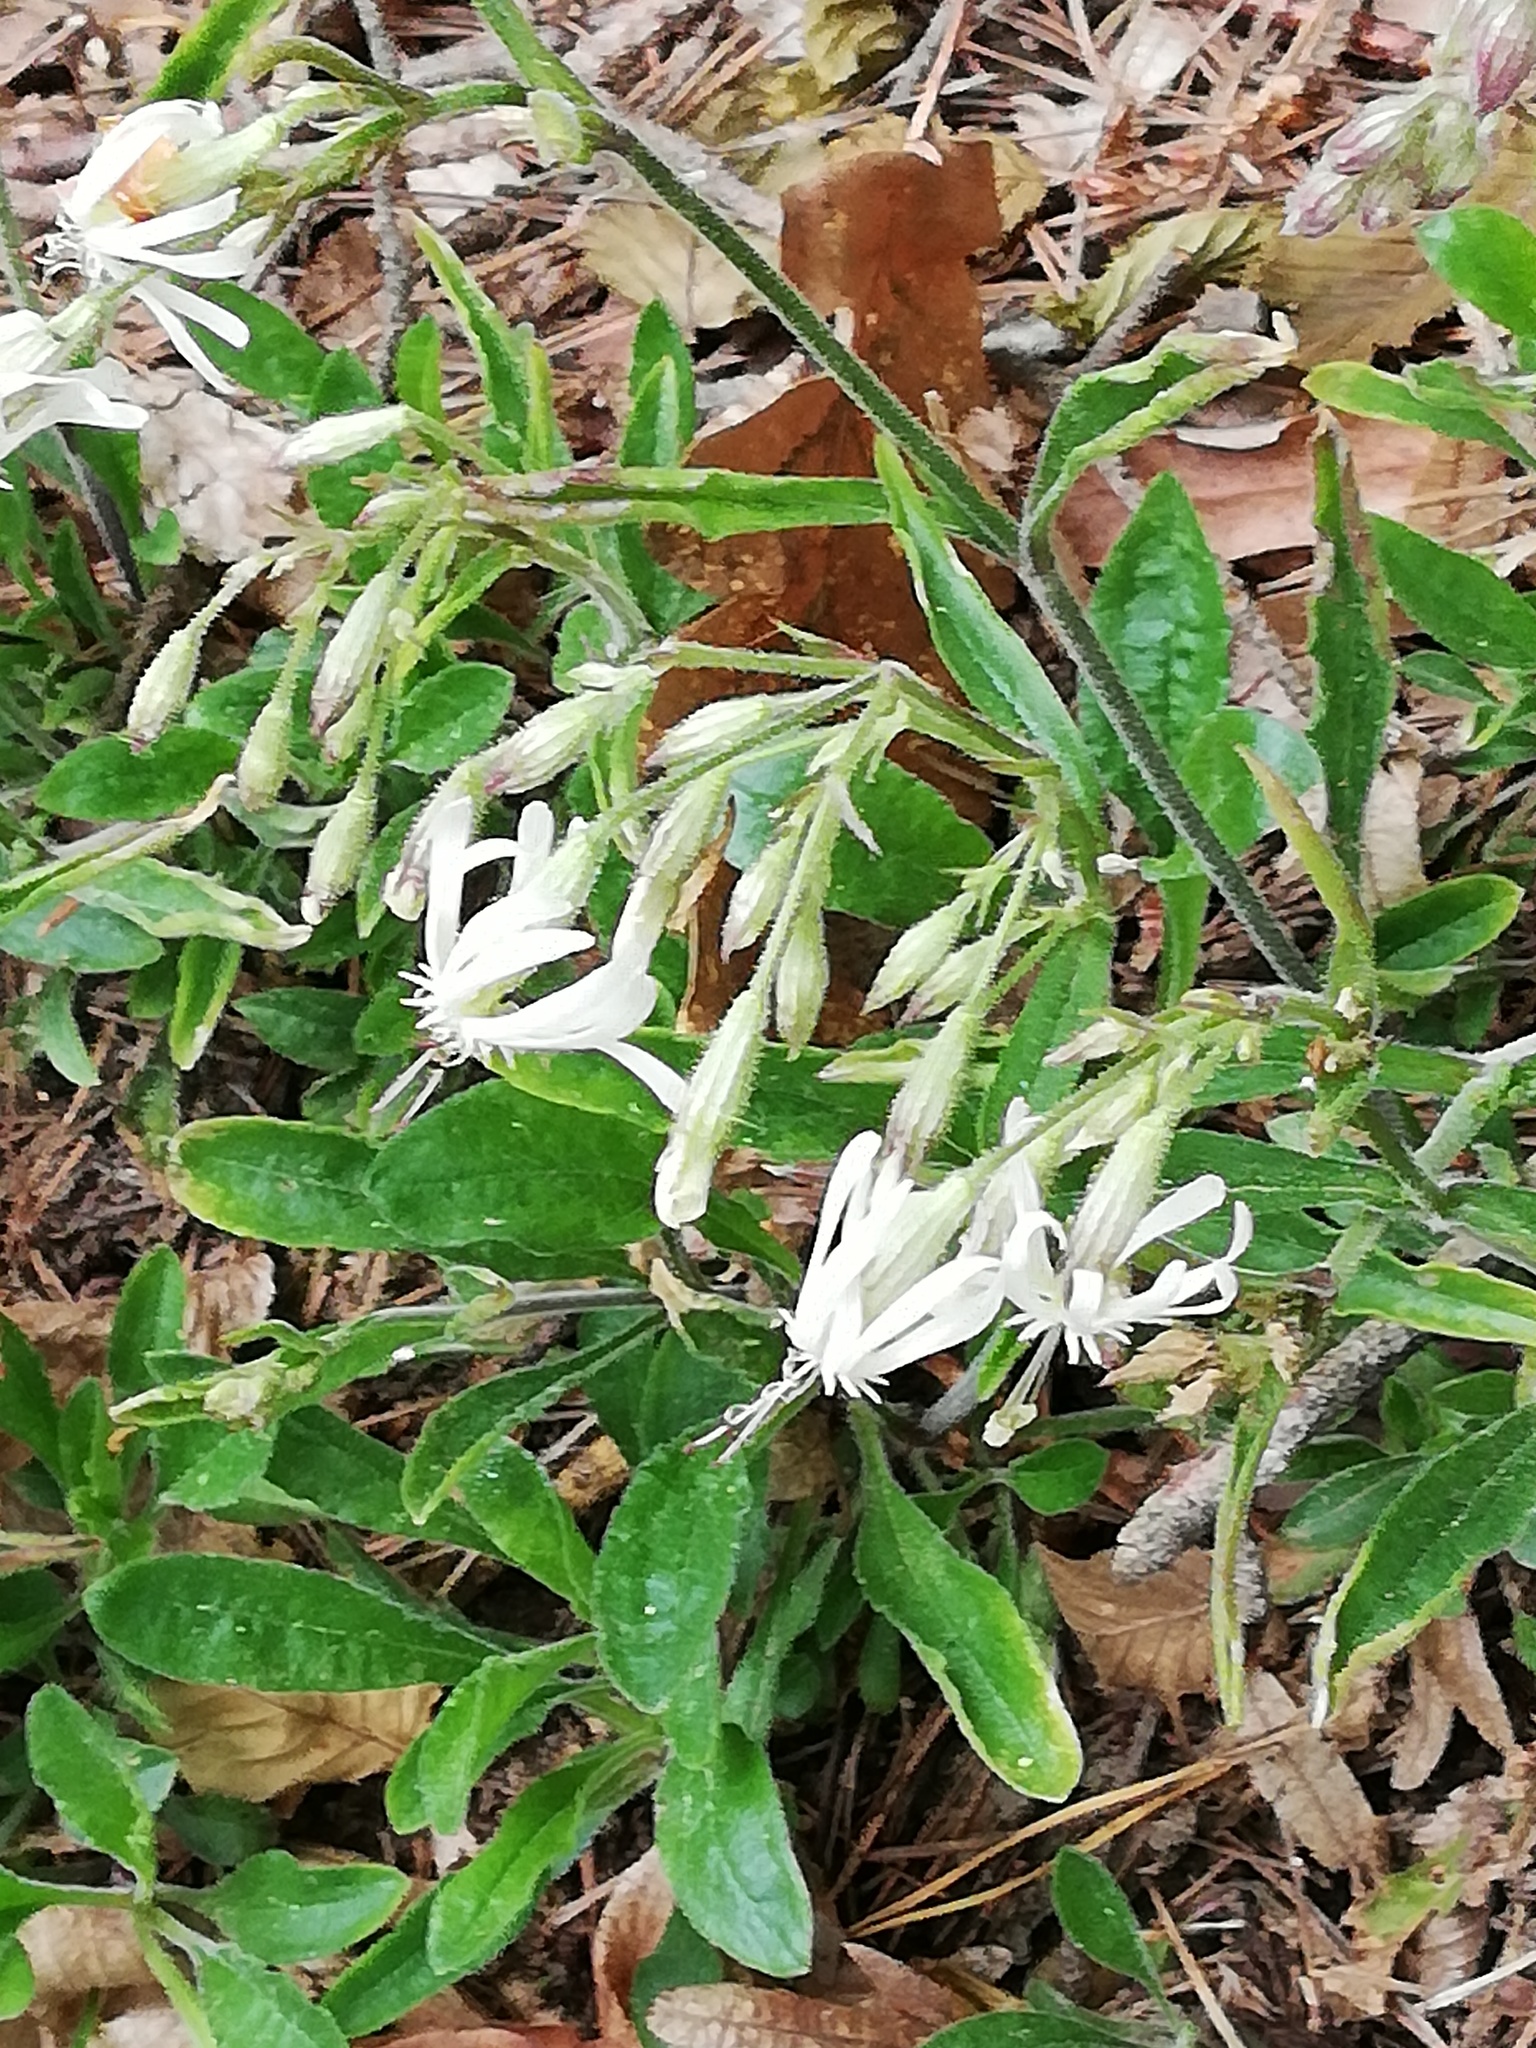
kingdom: Plantae
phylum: Tracheophyta
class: Magnoliopsida
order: Caryophyllales
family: Caryophyllaceae
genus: Silene
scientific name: Silene nutans
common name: Nottingham catchfly
